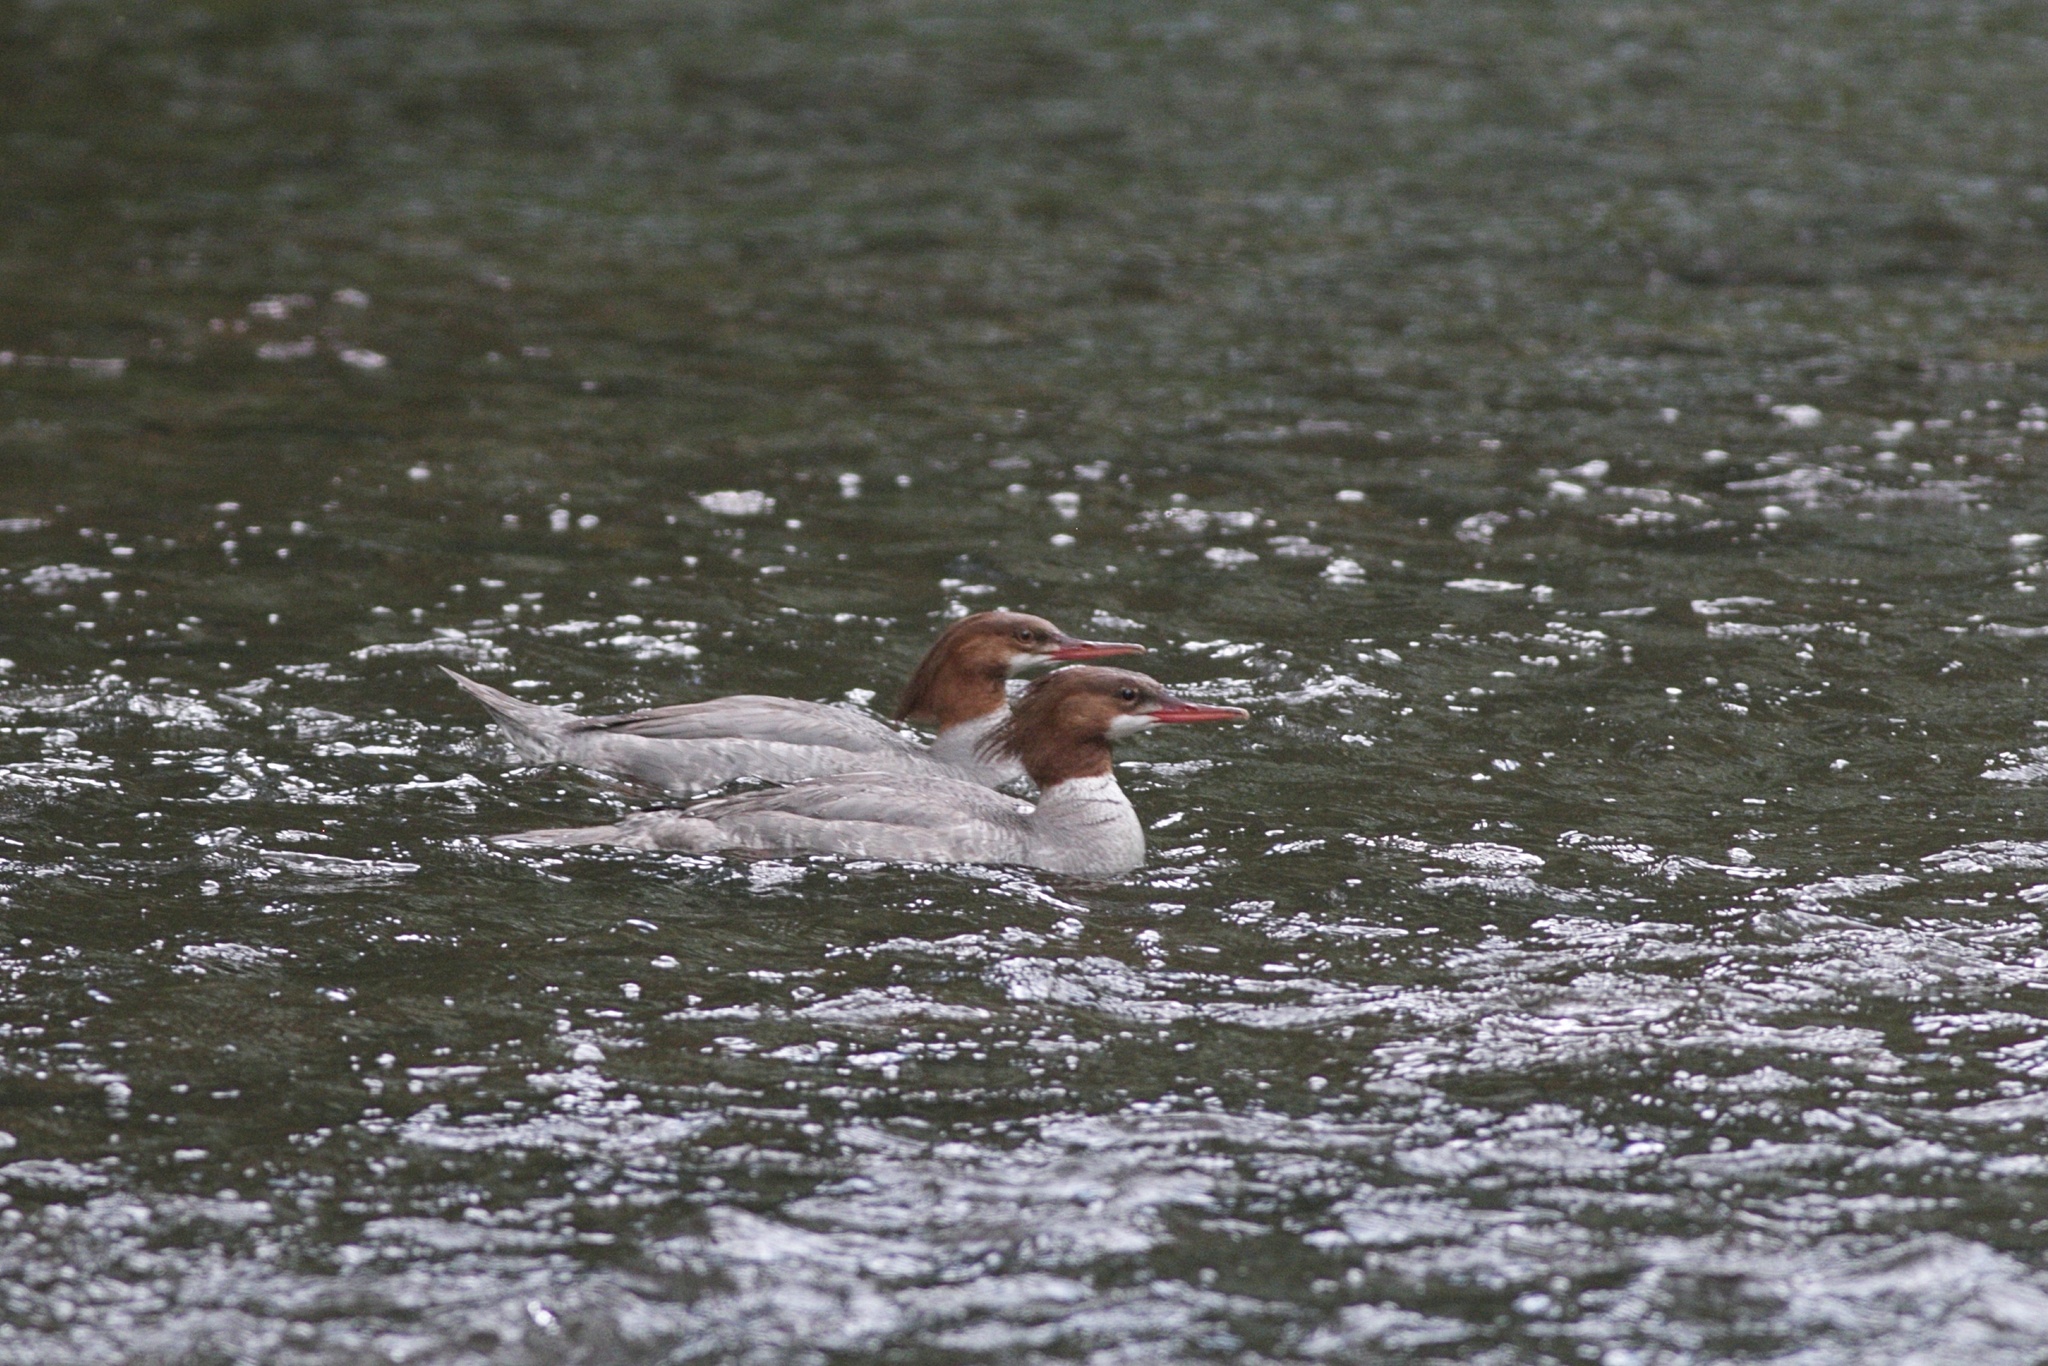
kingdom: Animalia
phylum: Chordata
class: Aves
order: Anseriformes
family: Anatidae
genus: Mergus
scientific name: Mergus merganser
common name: Common merganser
